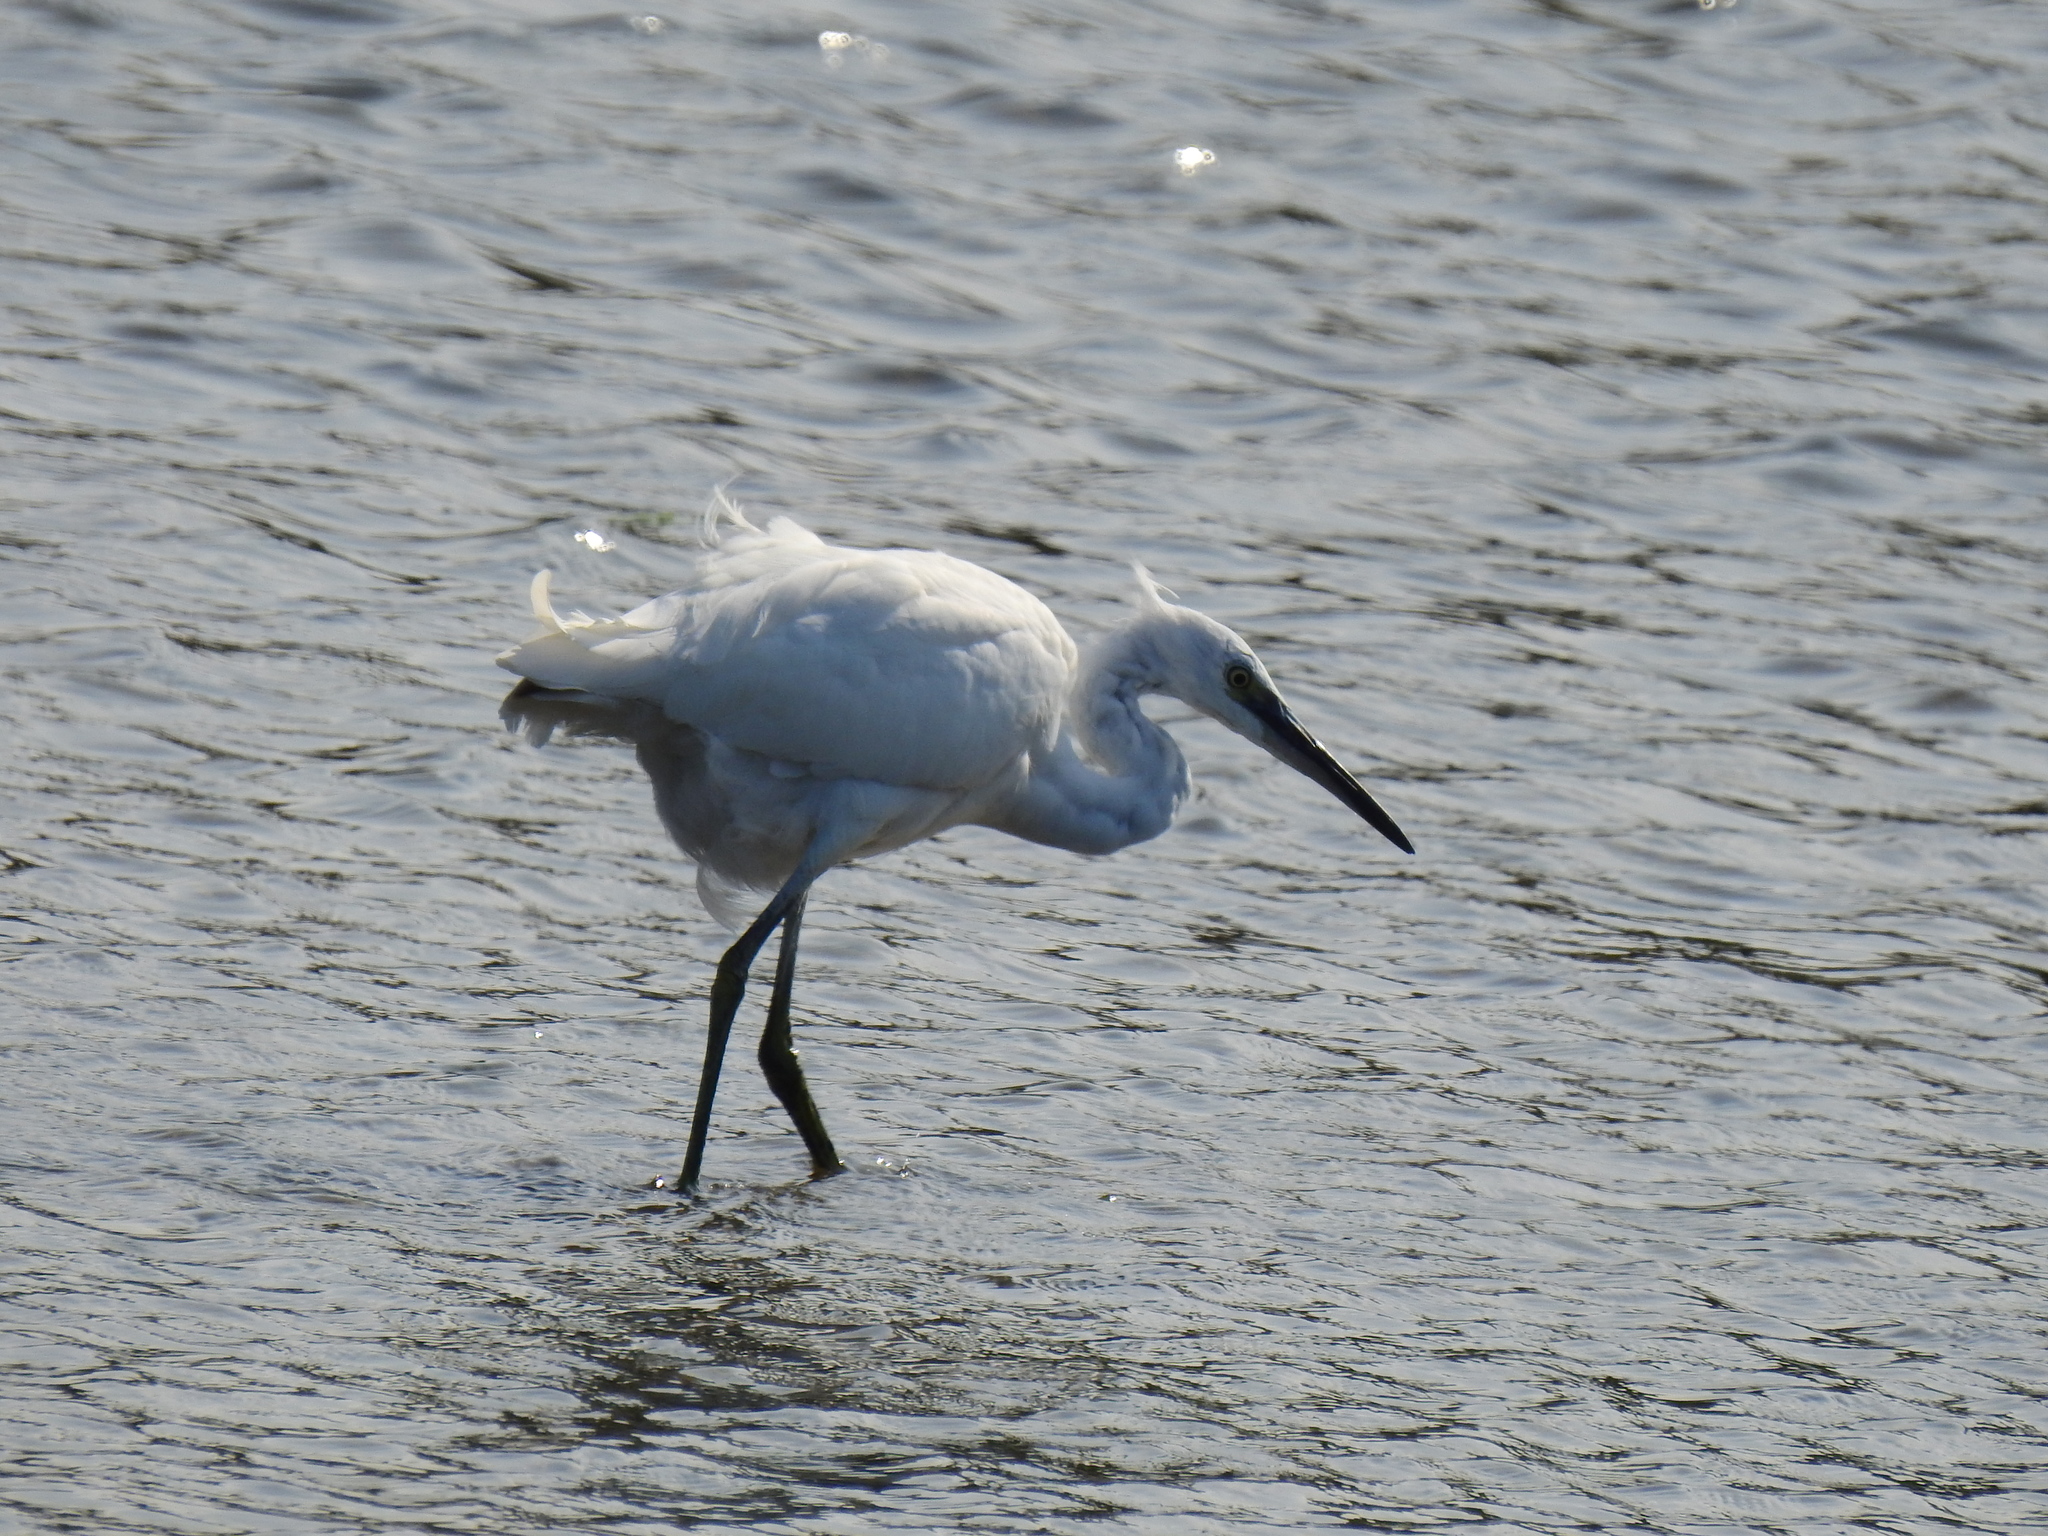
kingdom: Animalia
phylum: Chordata
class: Aves
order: Pelecaniformes
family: Ardeidae
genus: Egretta
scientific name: Egretta garzetta
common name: Little egret
